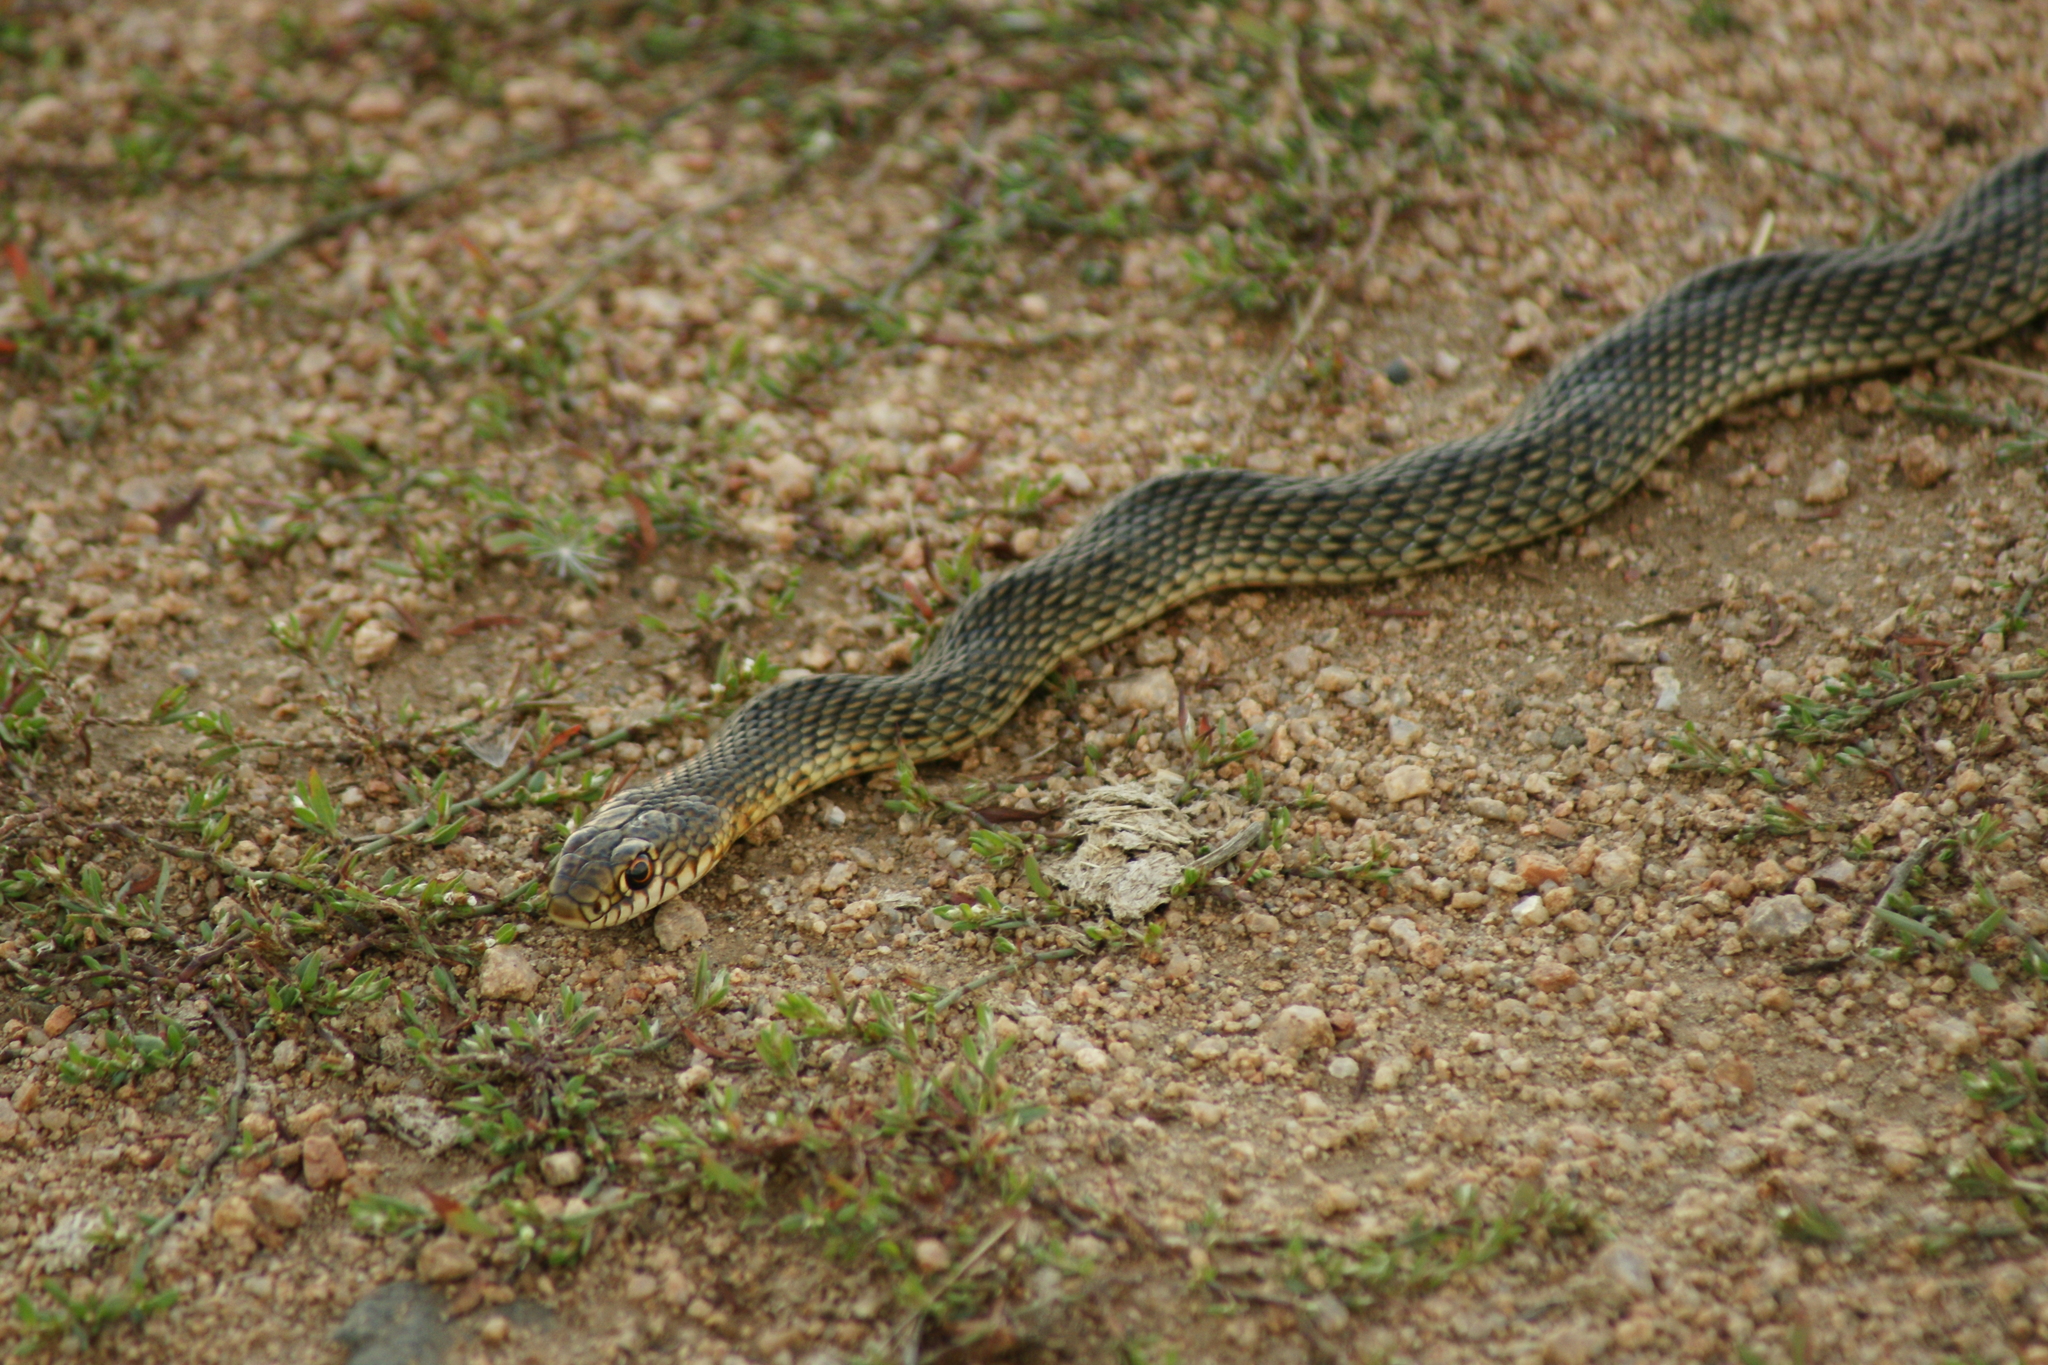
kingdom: Animalia
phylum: Chordata
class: Squamata
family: Colubridae
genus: Dolichophis
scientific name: Dolichophis caspius
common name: Large whip snake
